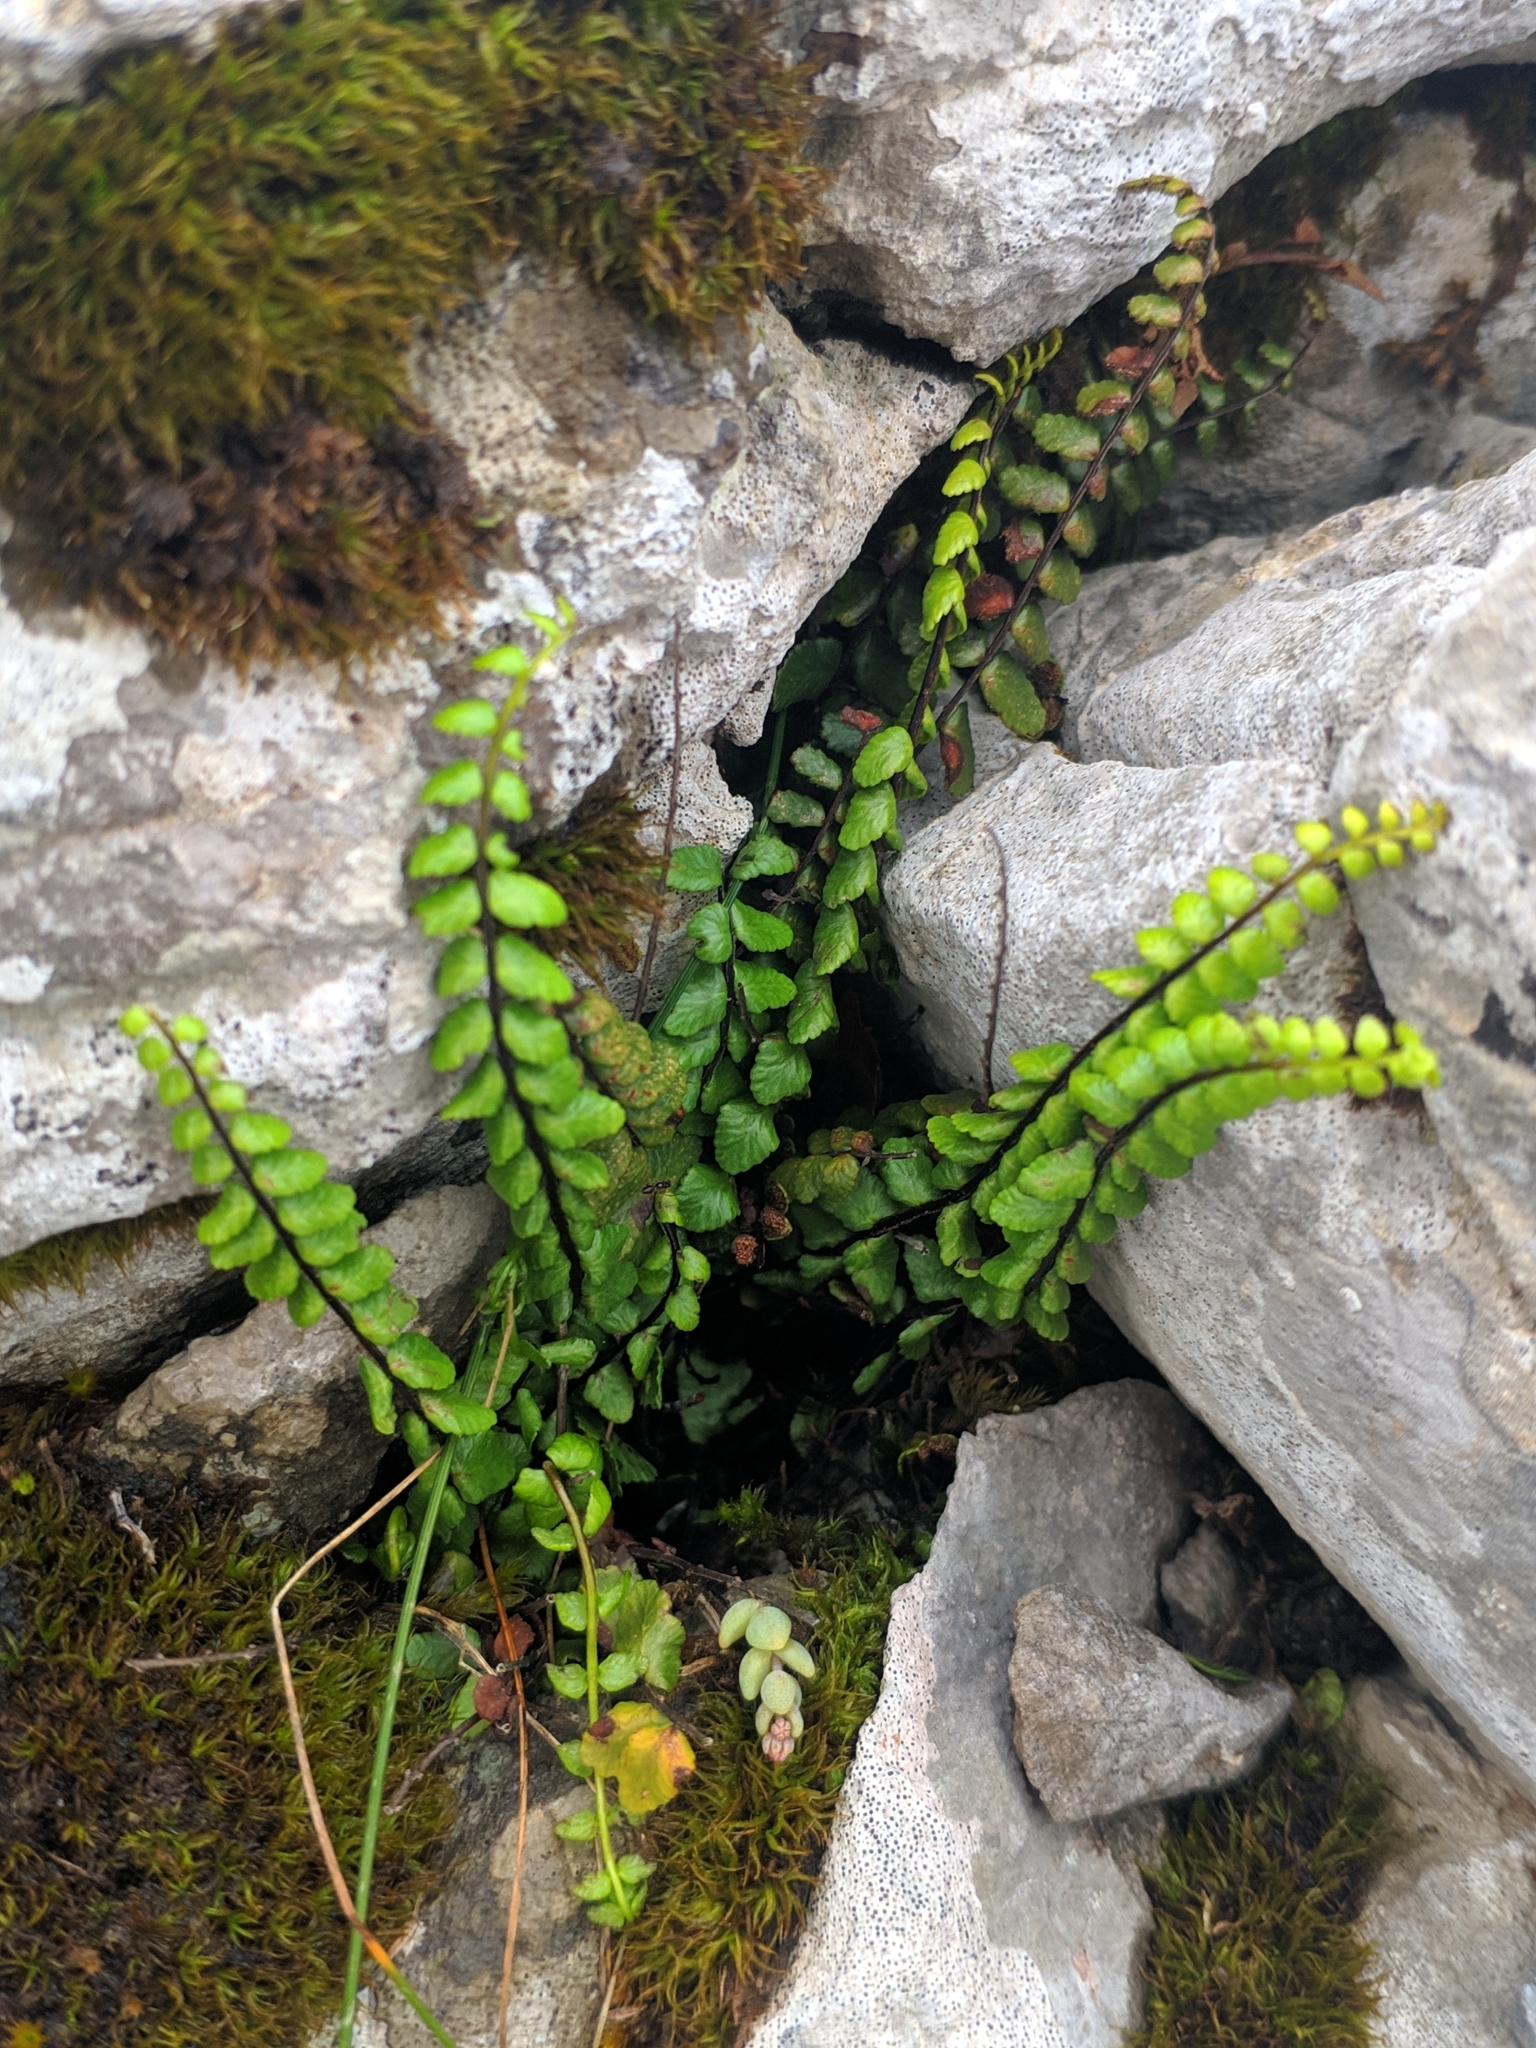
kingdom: Plantae
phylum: Tracheophyta
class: Polypodiopsida
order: Polypodiales
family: Aspleniaceae
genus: Asplenium
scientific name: Asplenium trichomanes
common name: Maidenhair spleenwort
